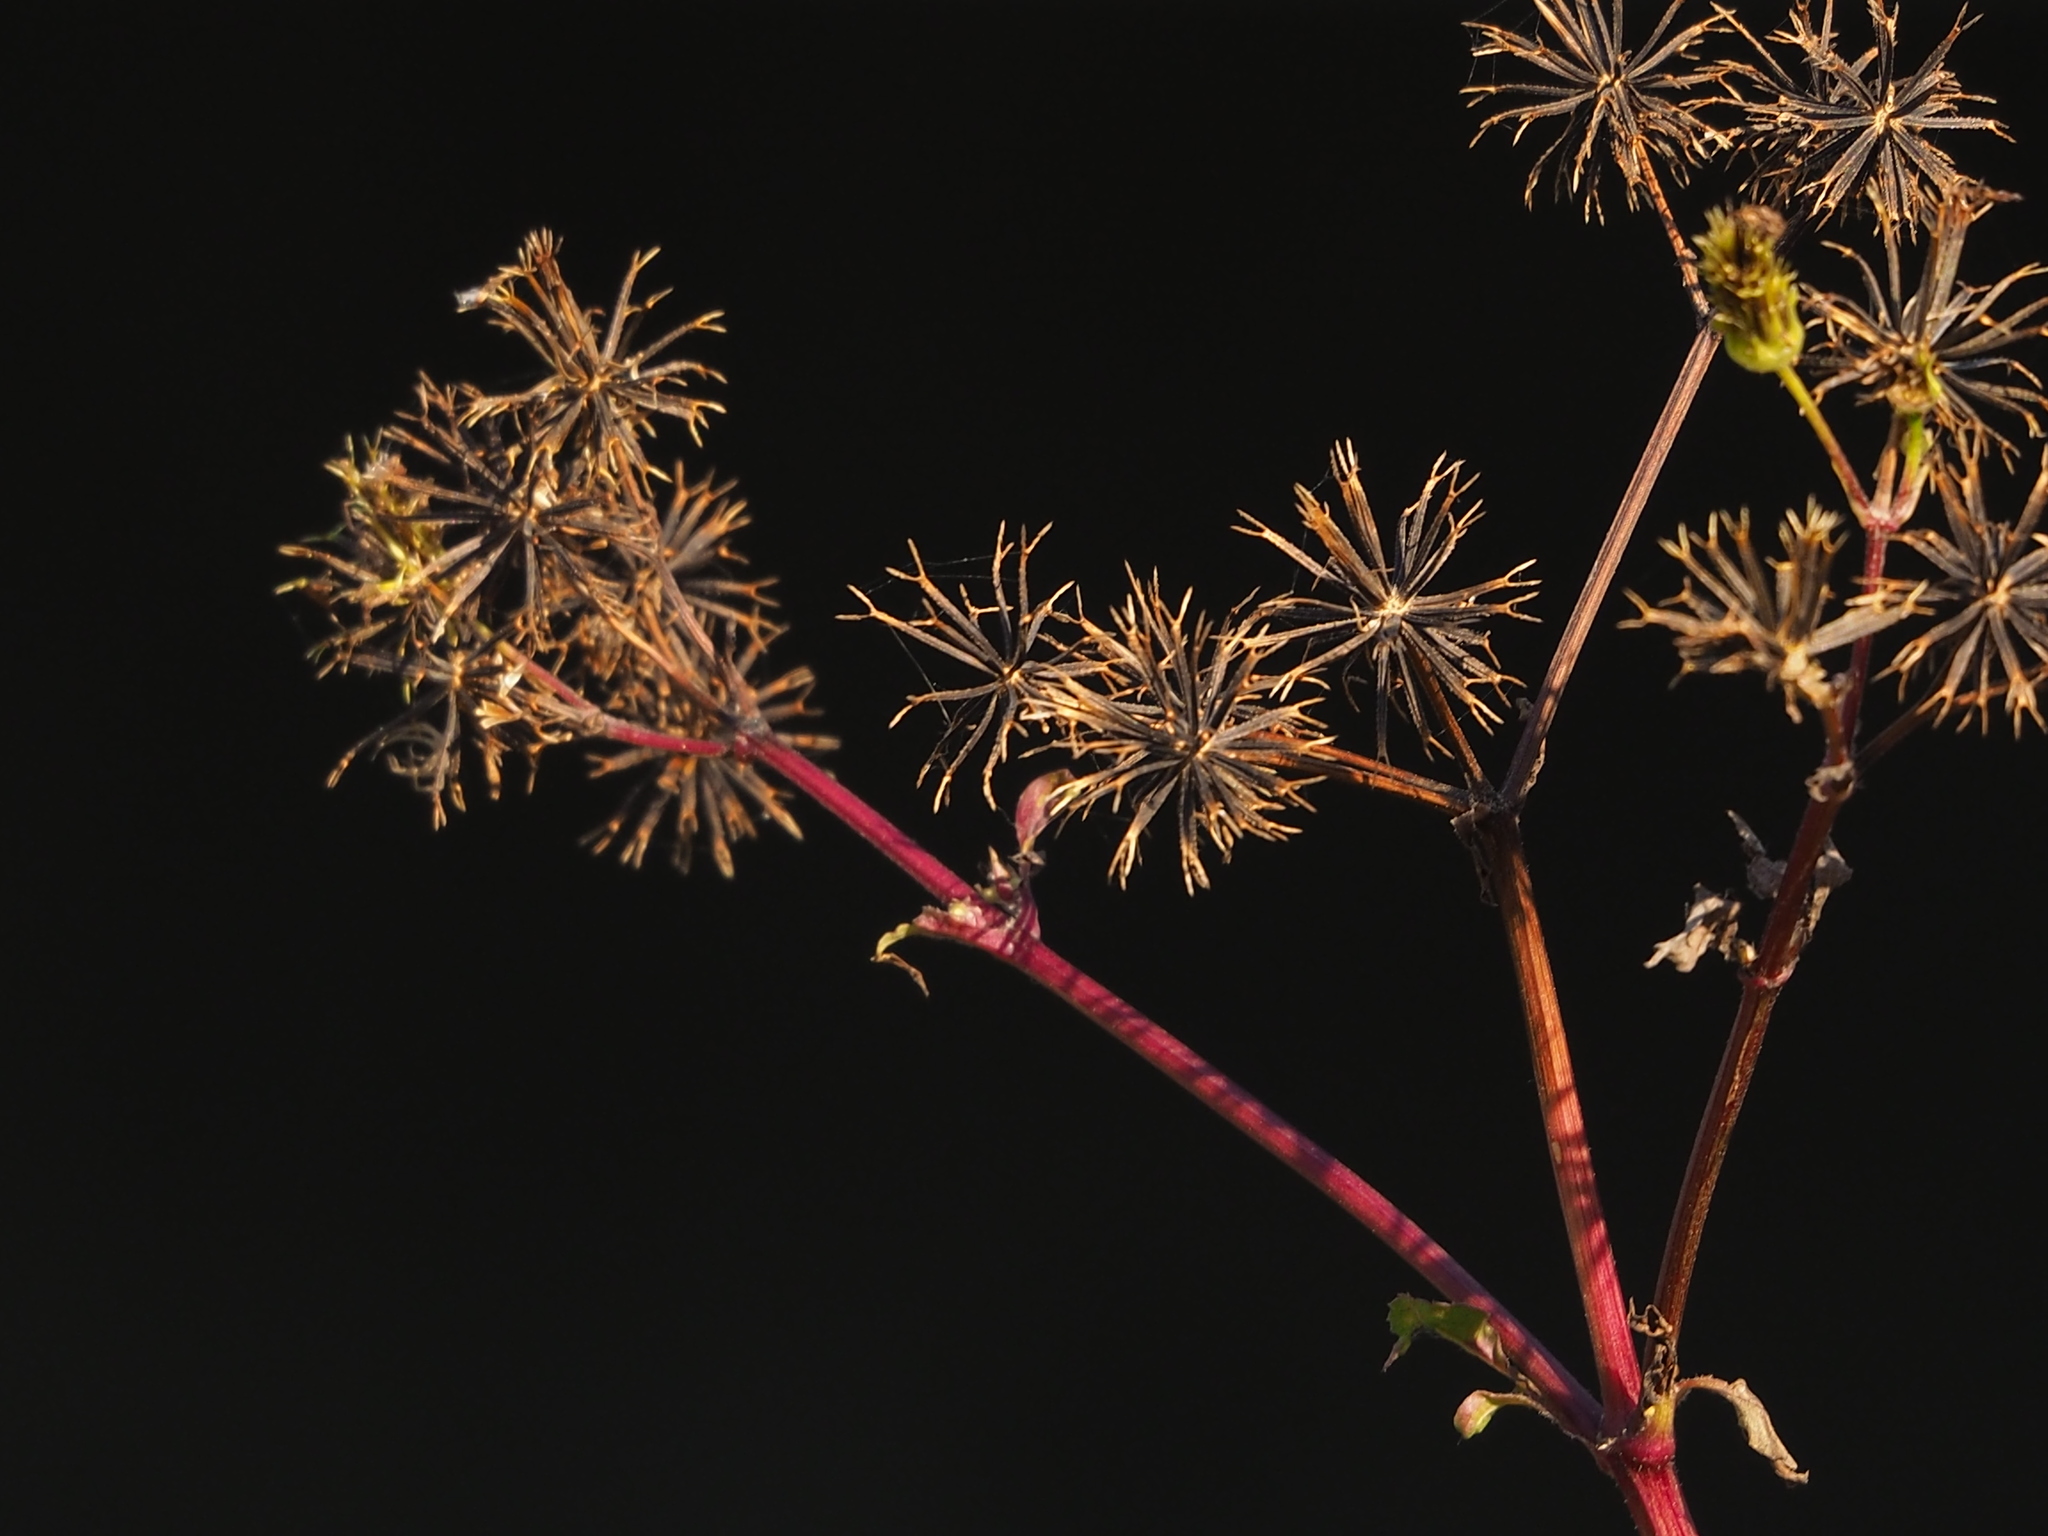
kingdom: Plantae
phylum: Tracheophyta
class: Magnoliopsida
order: Asterales
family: Asteraceae
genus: Bidens
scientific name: Bidens alba
